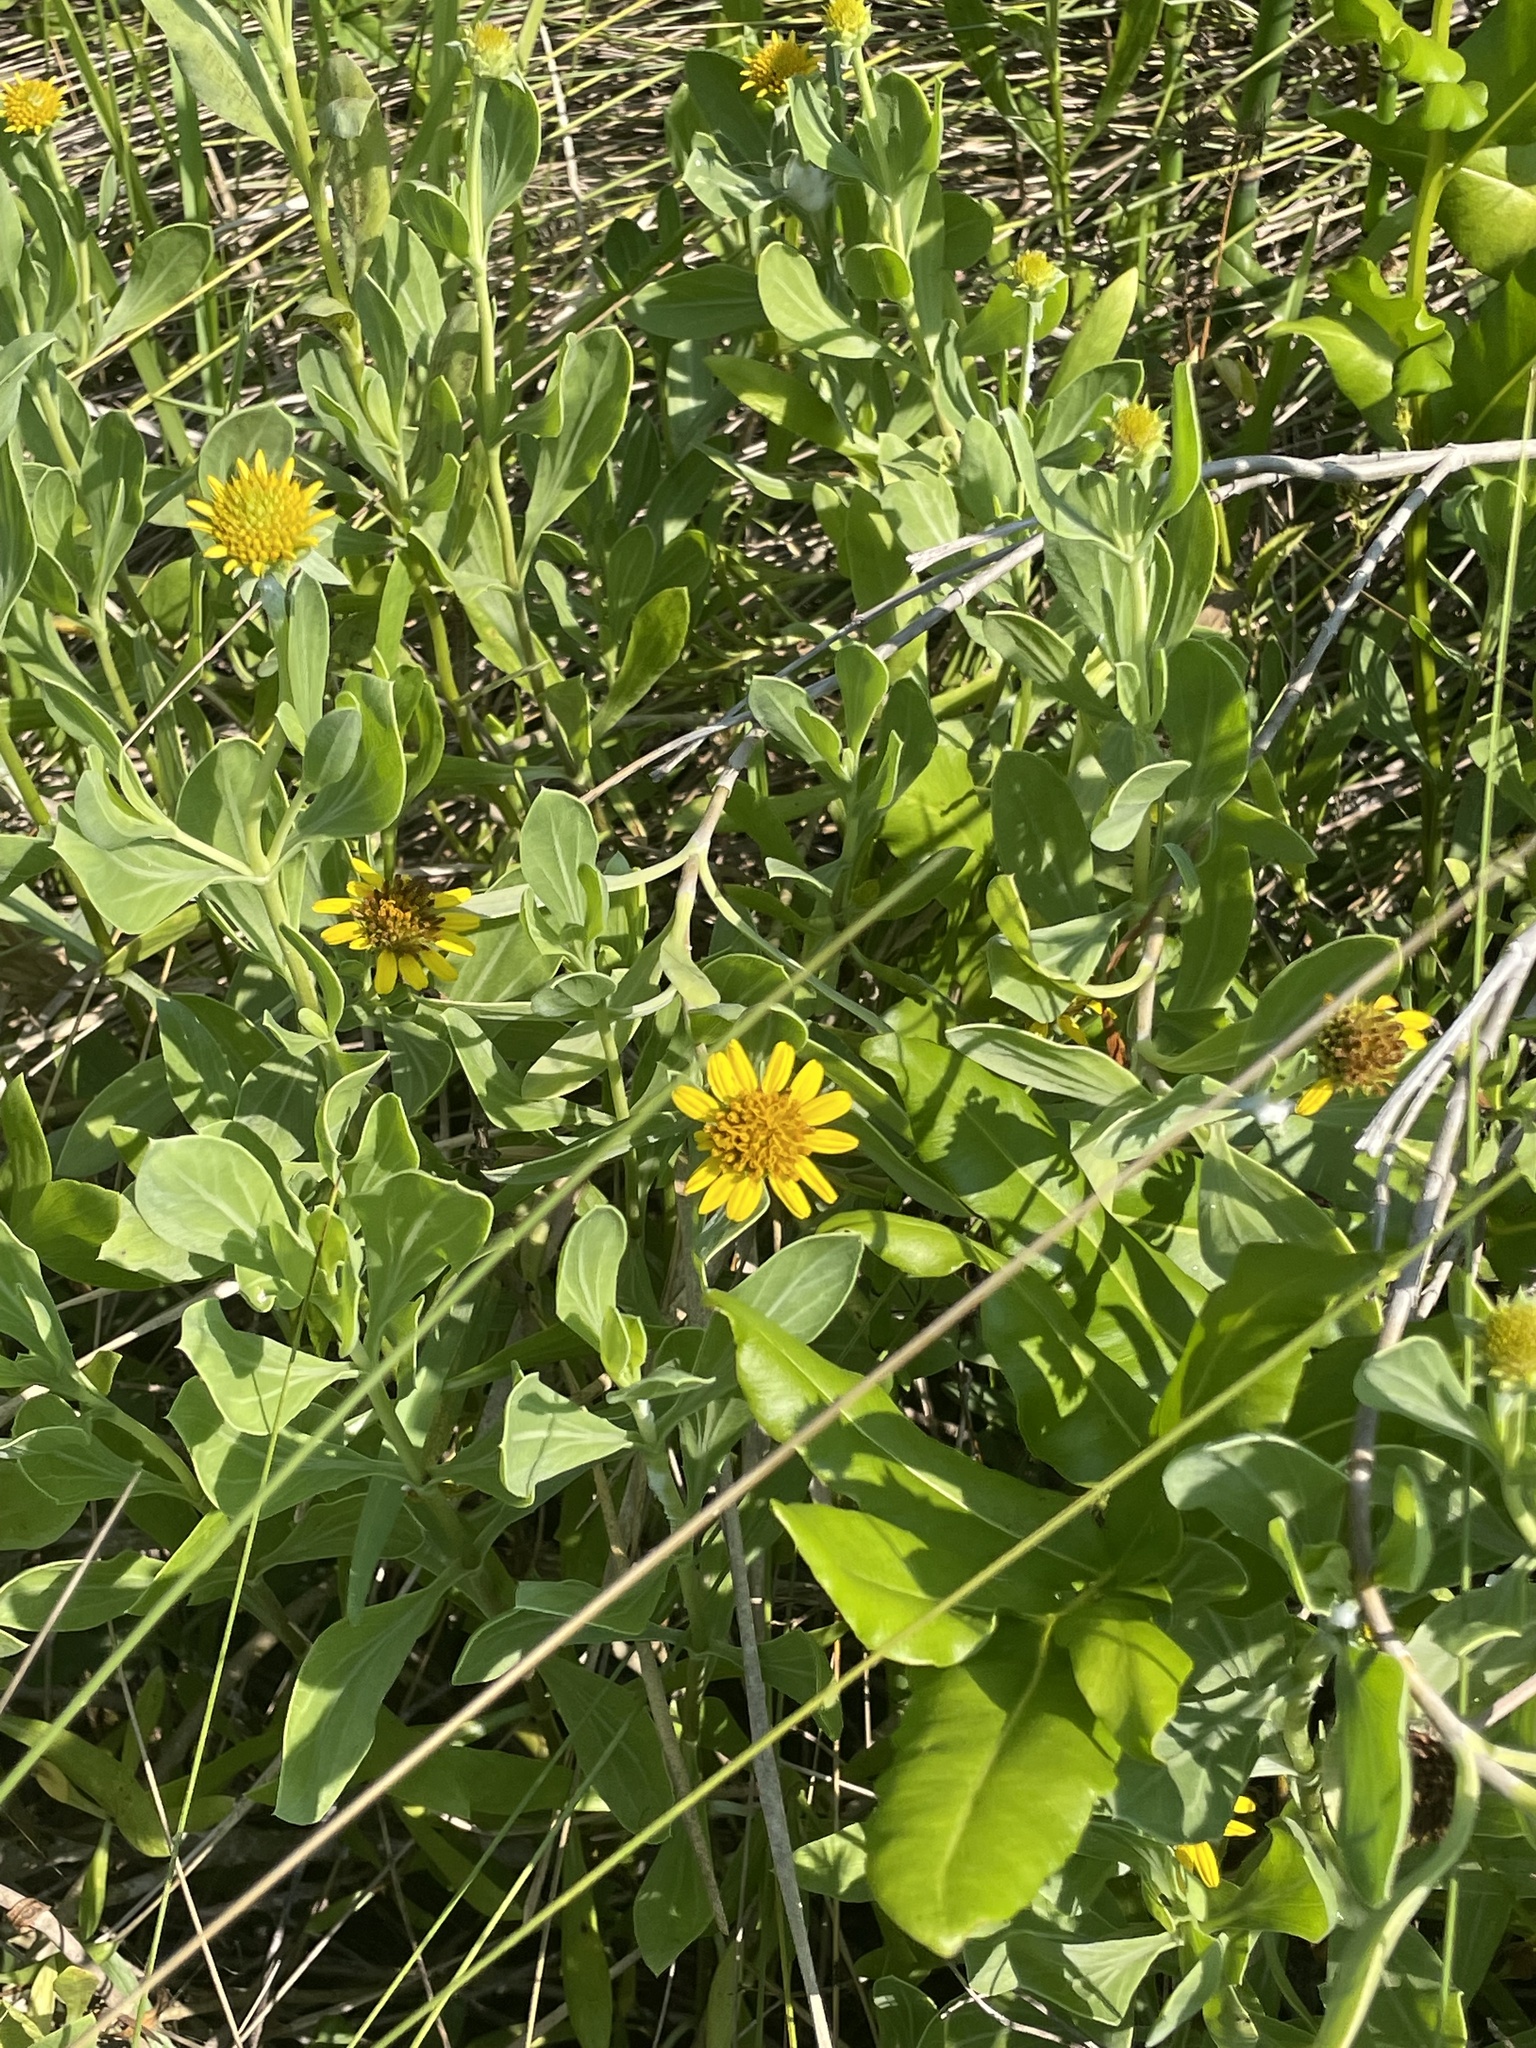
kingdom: Plantae
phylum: Tracheophyta
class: Magnoliopsida
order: Asterales
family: Asteraceae
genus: Borrichia
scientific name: Borrichia frutescens
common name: Sea oxeye
